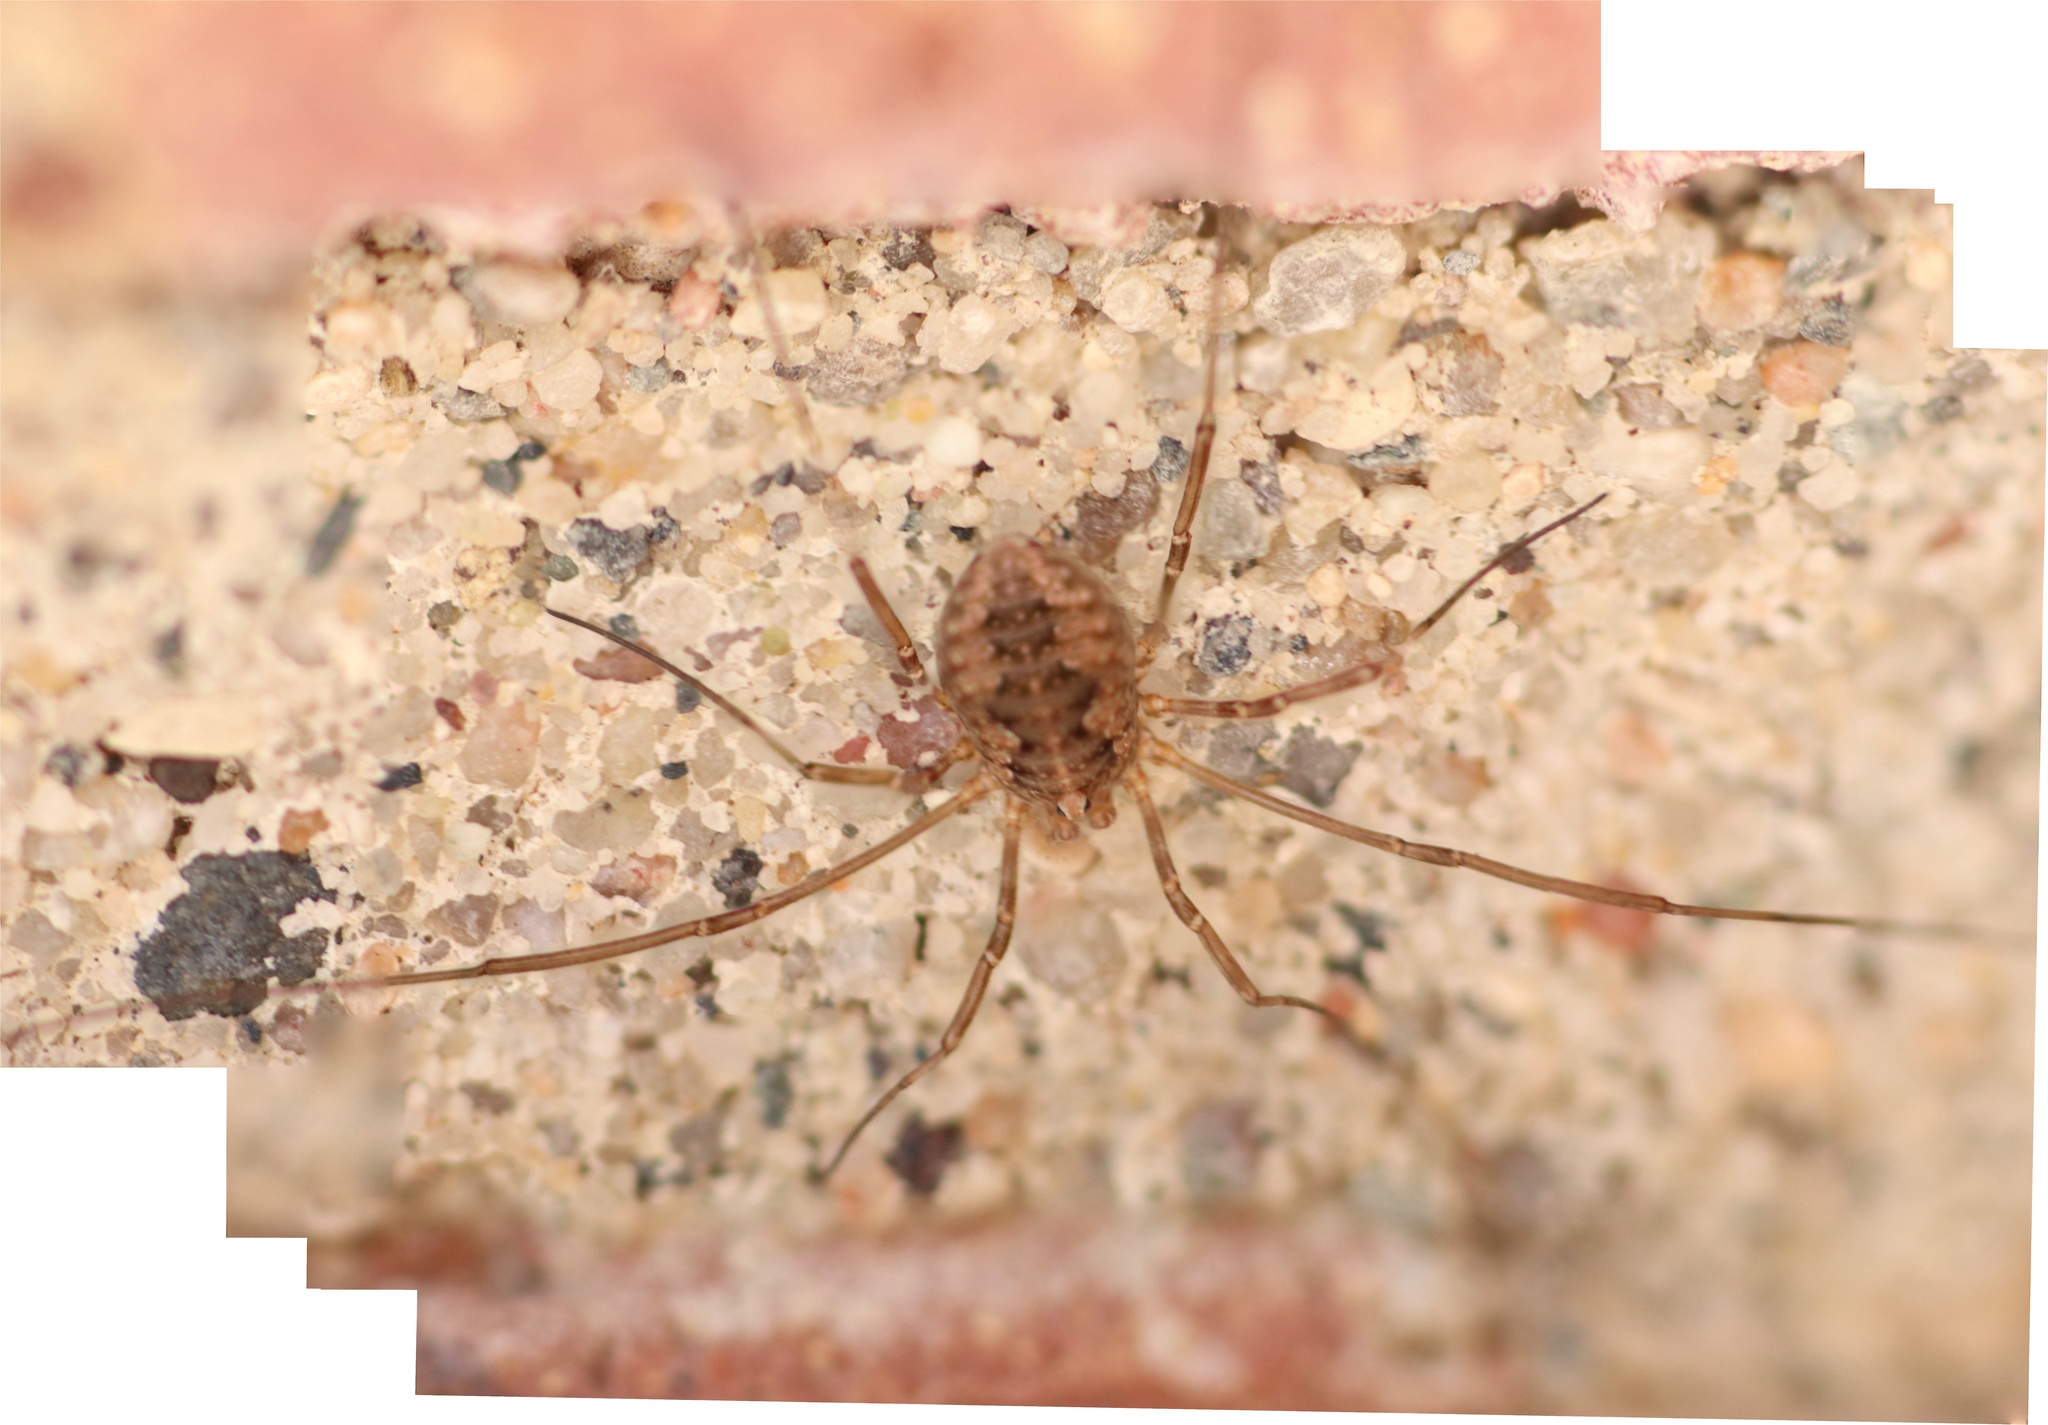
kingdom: Animalia
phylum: Arthropoda
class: Arachnida
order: Opiliones
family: Phalangiidae
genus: Phalangium
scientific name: Phalangium opilio
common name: Daddy longleg
